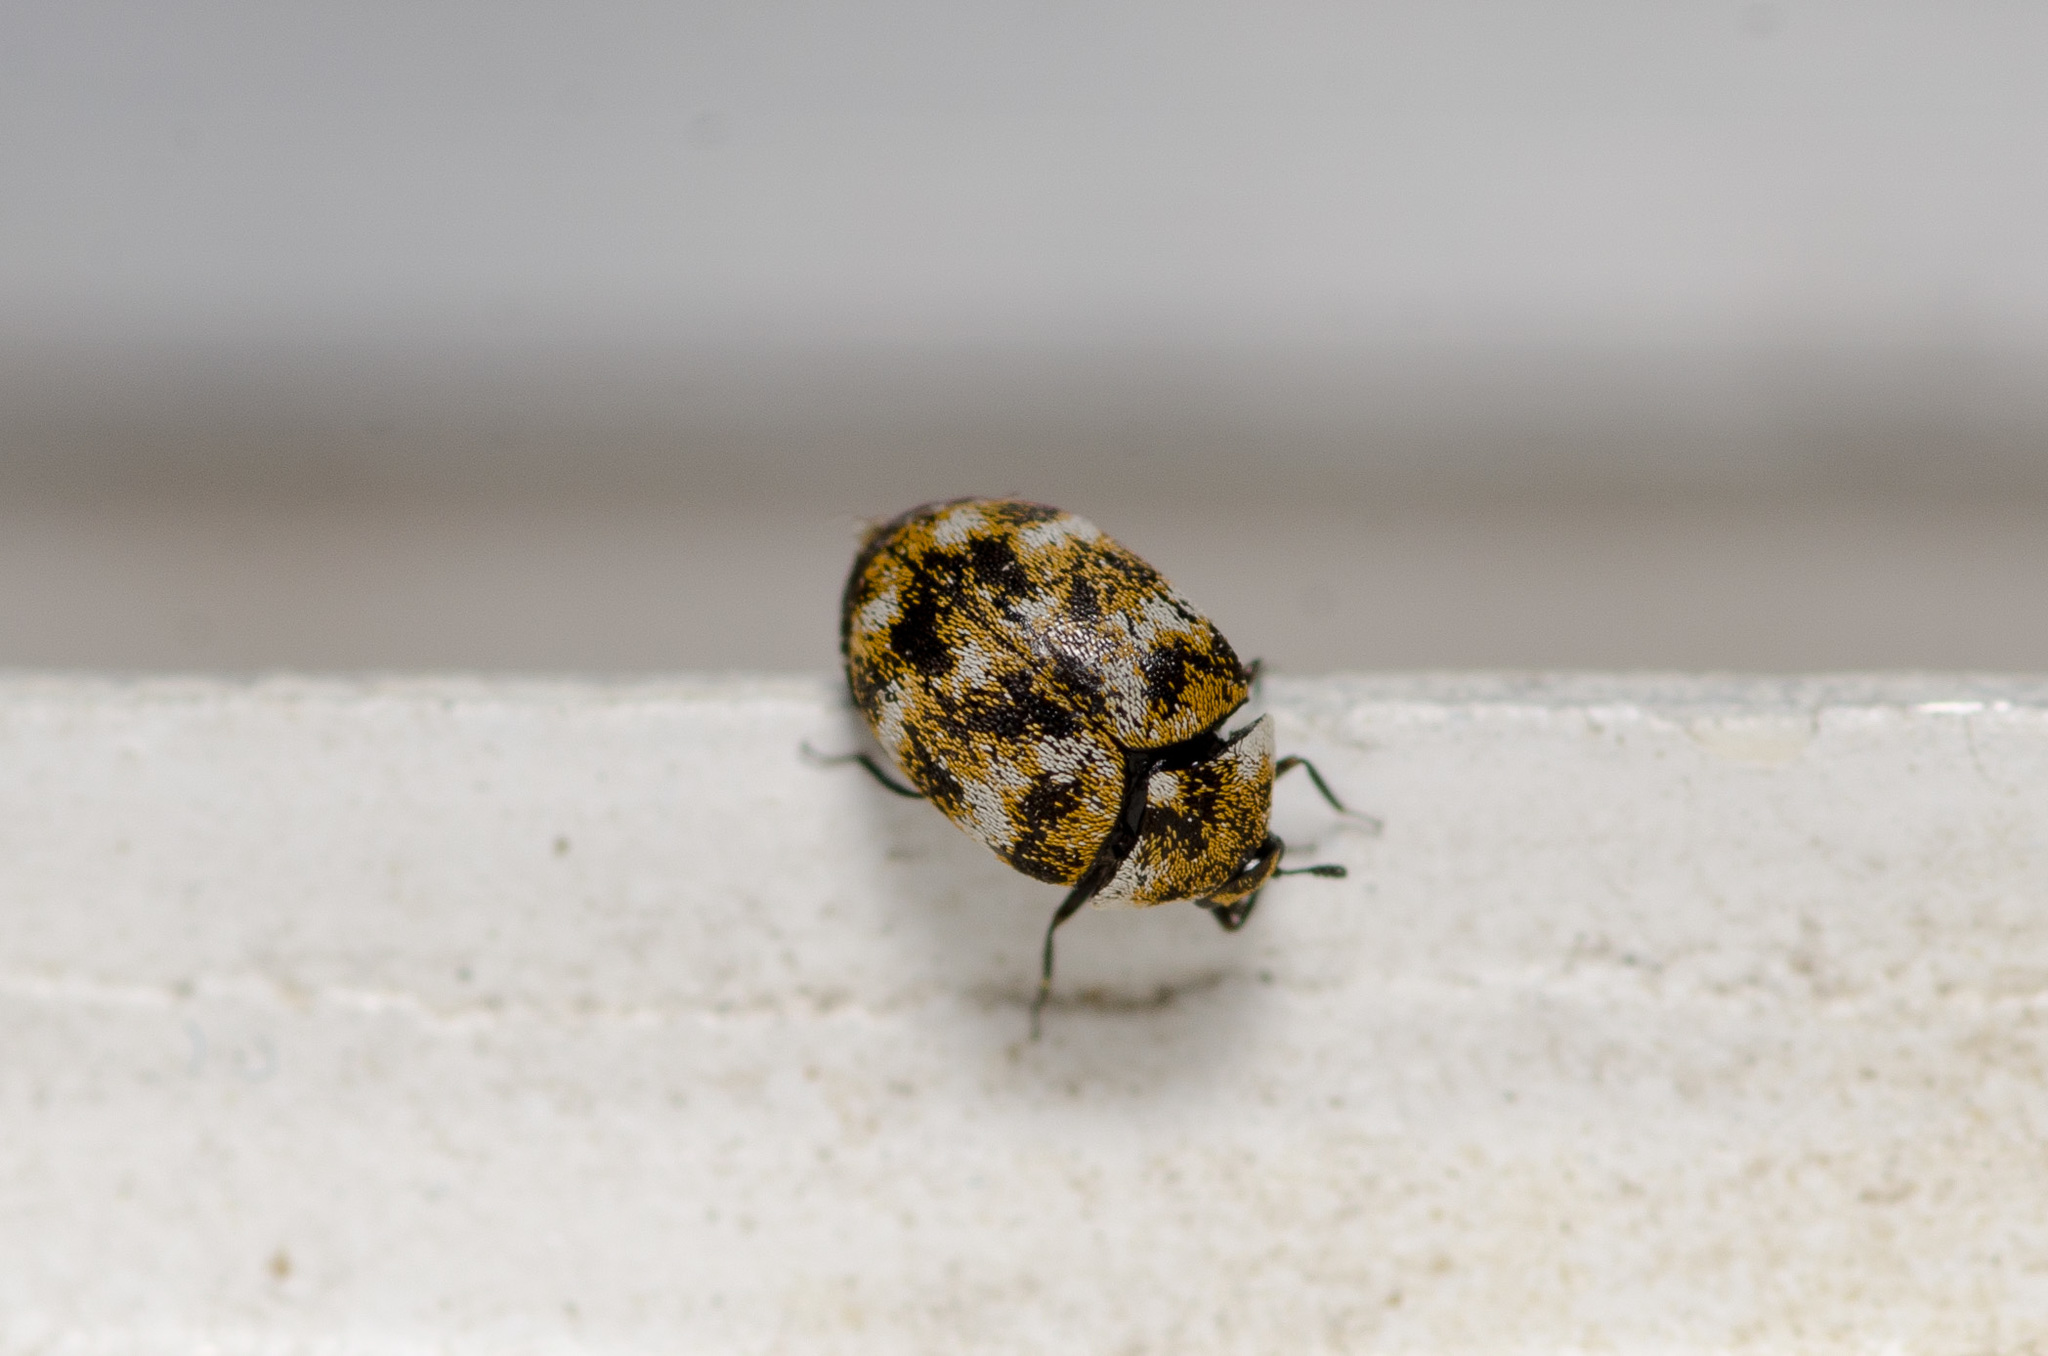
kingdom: Animalia
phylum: Arthropoda
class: Insecta
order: Coleoptera
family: Dermestidae
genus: Anthrenus
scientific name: Anthrenus verbasci
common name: Varied carpet beetle
